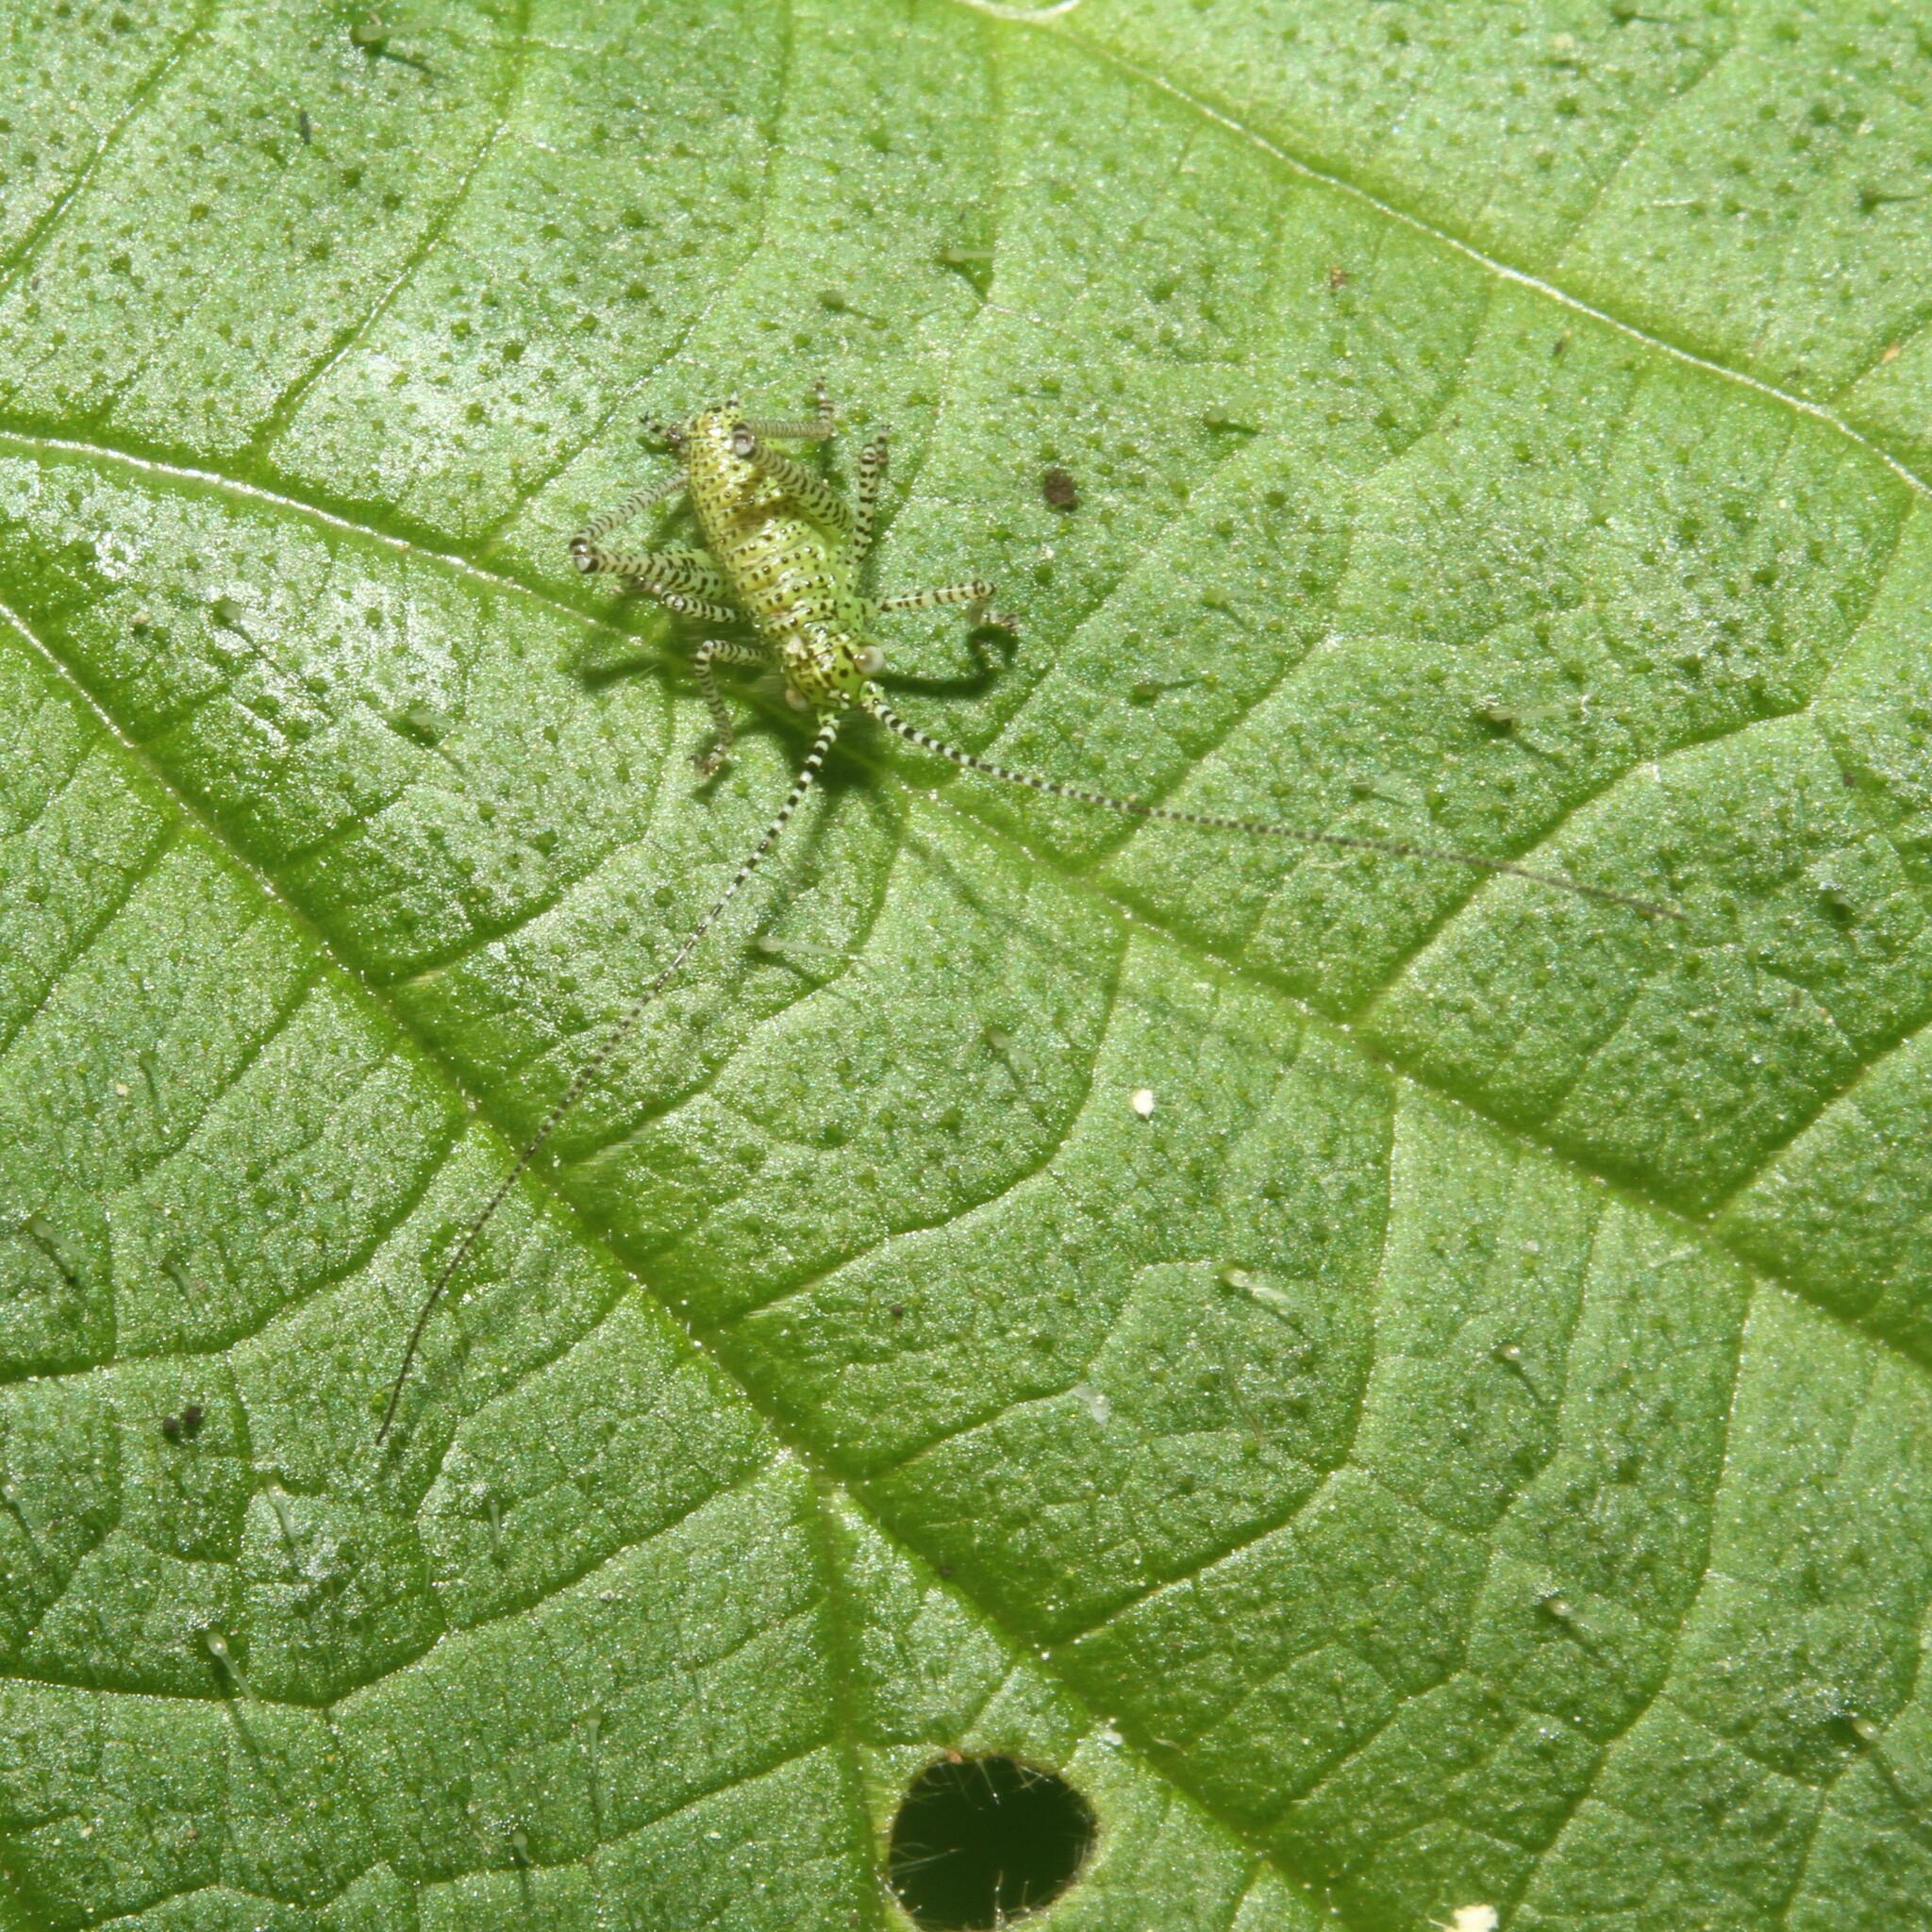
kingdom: Animalia
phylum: Arthropoda
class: Insecta
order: Orthoptera
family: Tettigoniidae
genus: Leptophyes
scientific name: Leptophyes punctatissima
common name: Speckled bush-cricket
